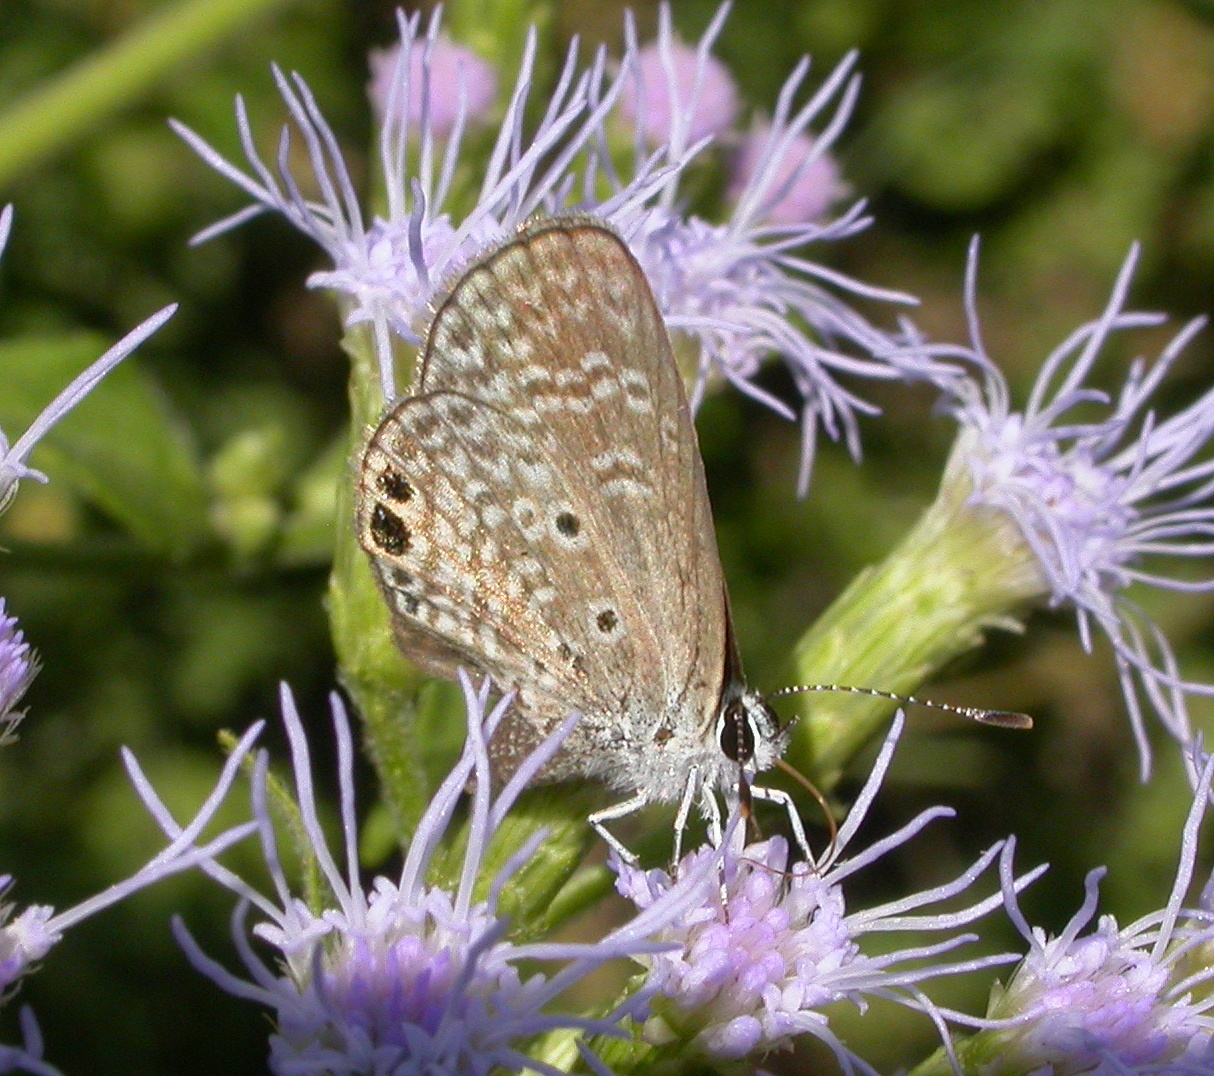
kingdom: Animalia
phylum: Arthropoda
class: Insecta
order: Lepidoptera
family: Lycaenidae
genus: Hemiargus
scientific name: Hemiargus ceraunus
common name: Ceraunus blue
